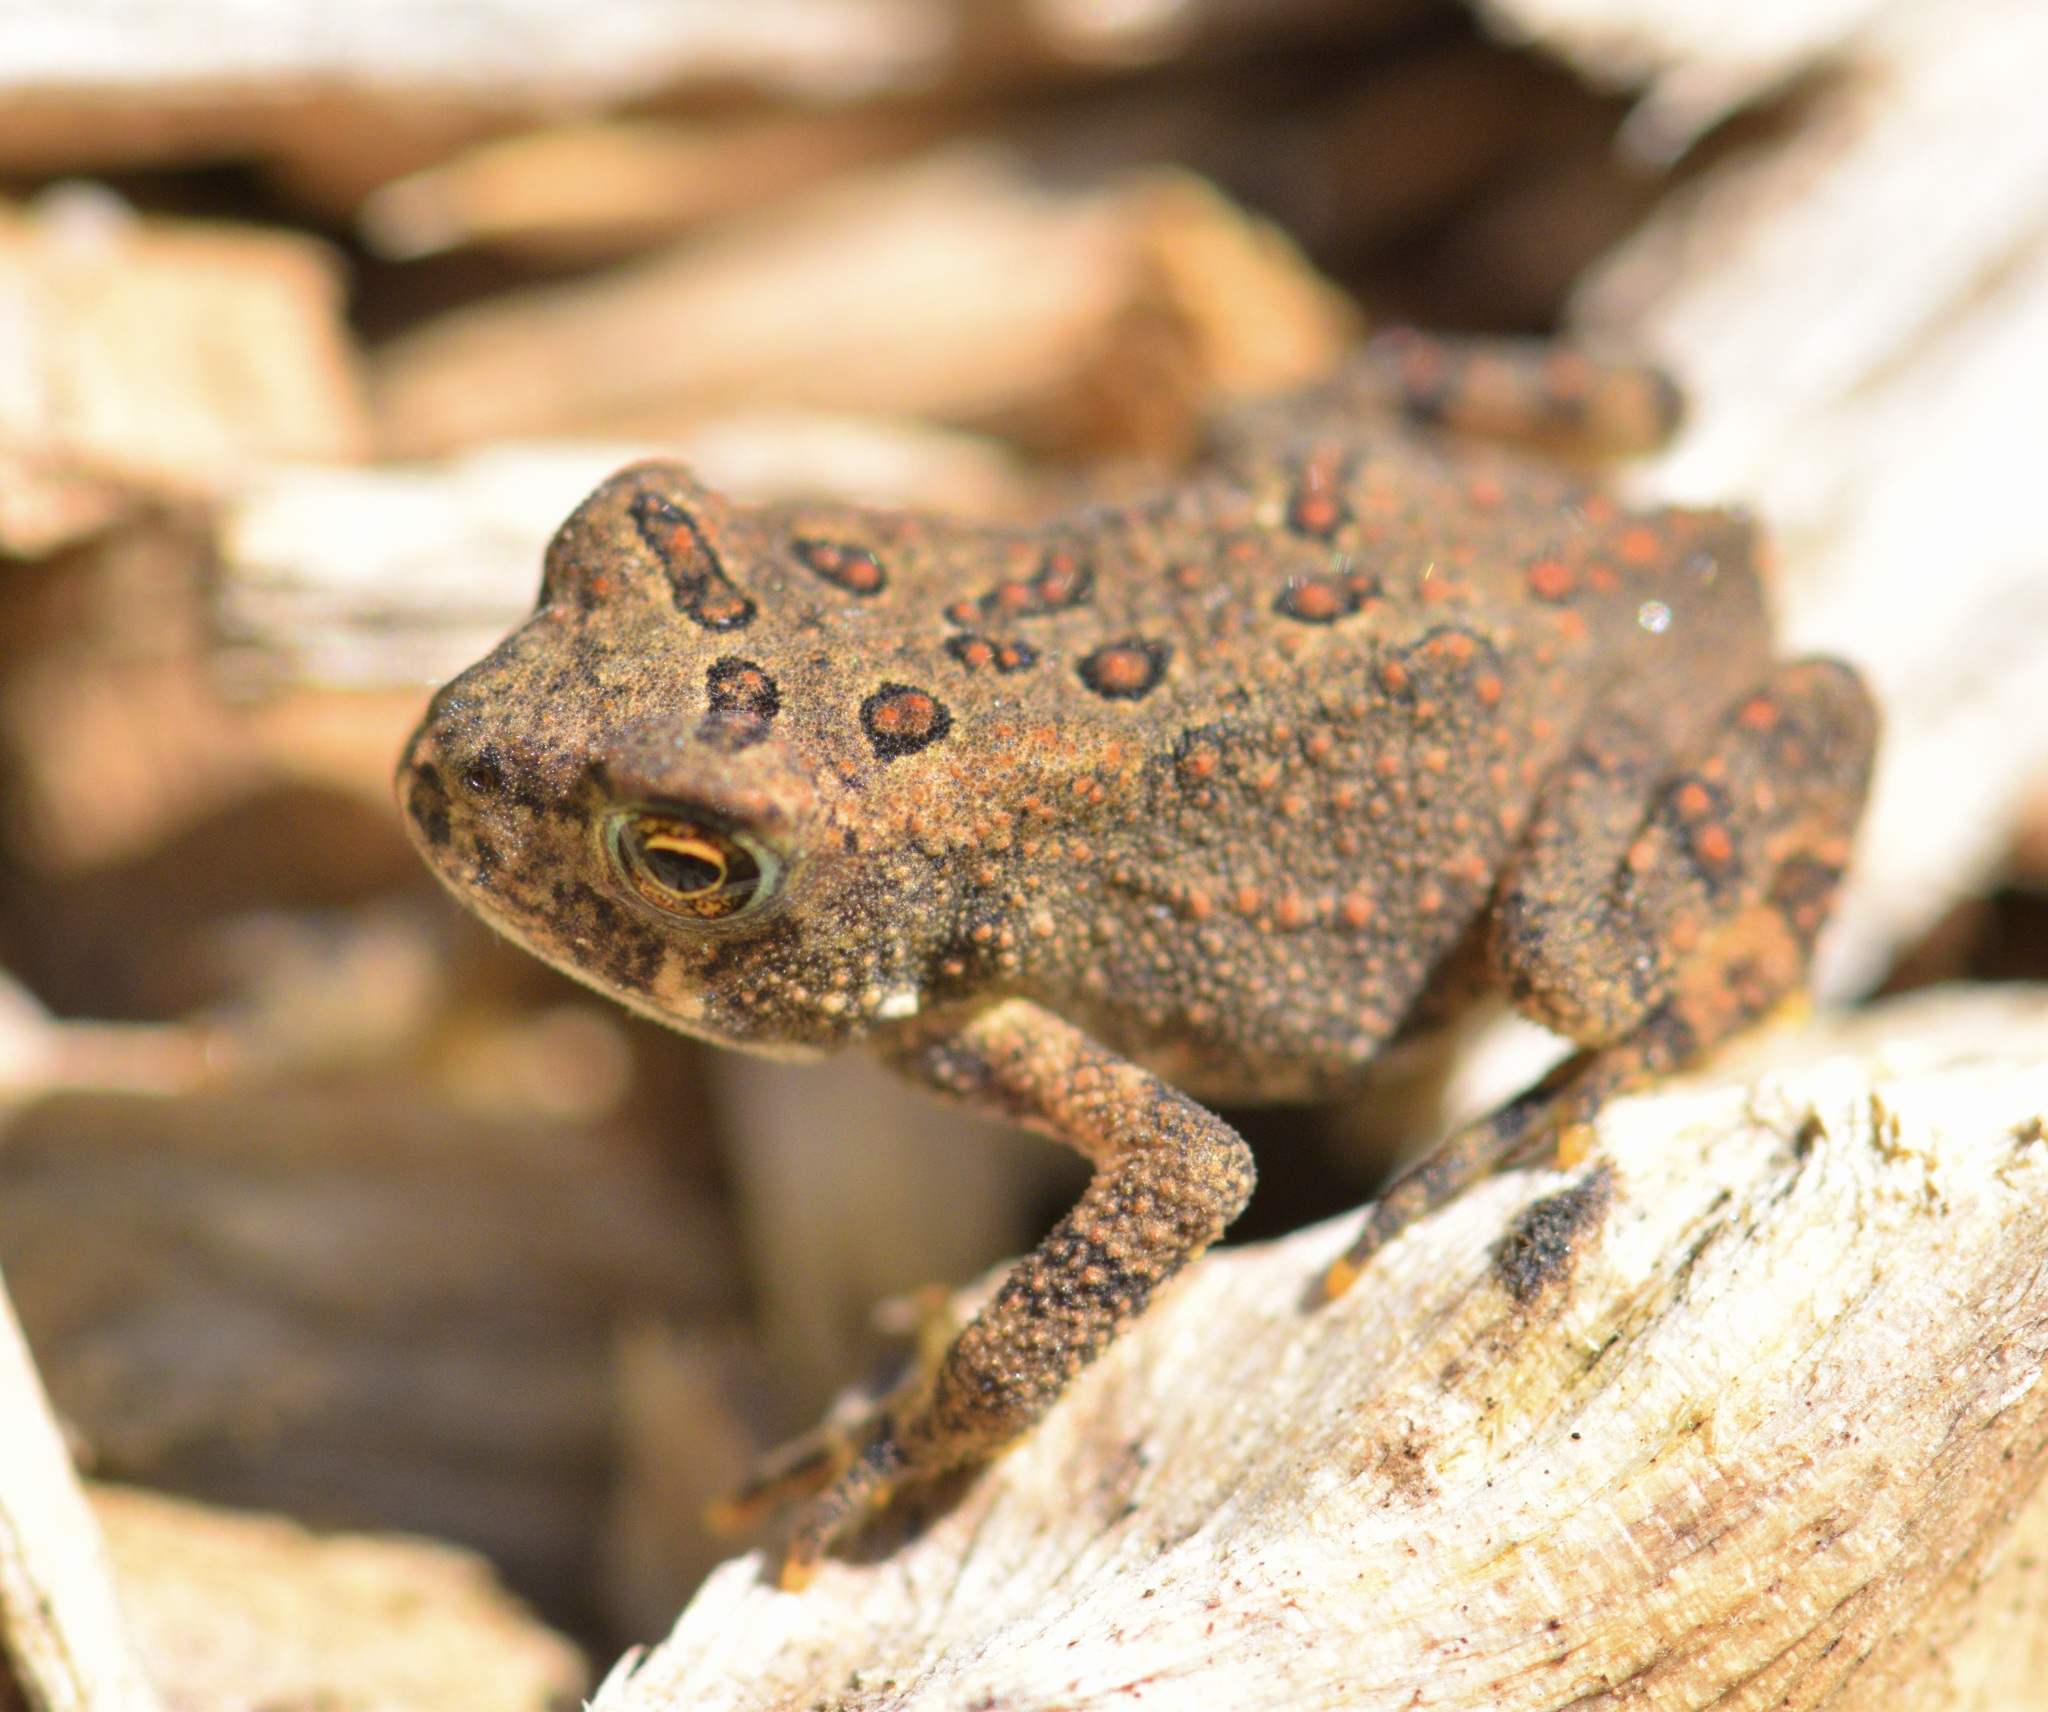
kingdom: Animalia
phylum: Chordata
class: Amphibia
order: Anura
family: Bufonidae
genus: Anaxyrus
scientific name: Anaxyrus americanus
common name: American toad
